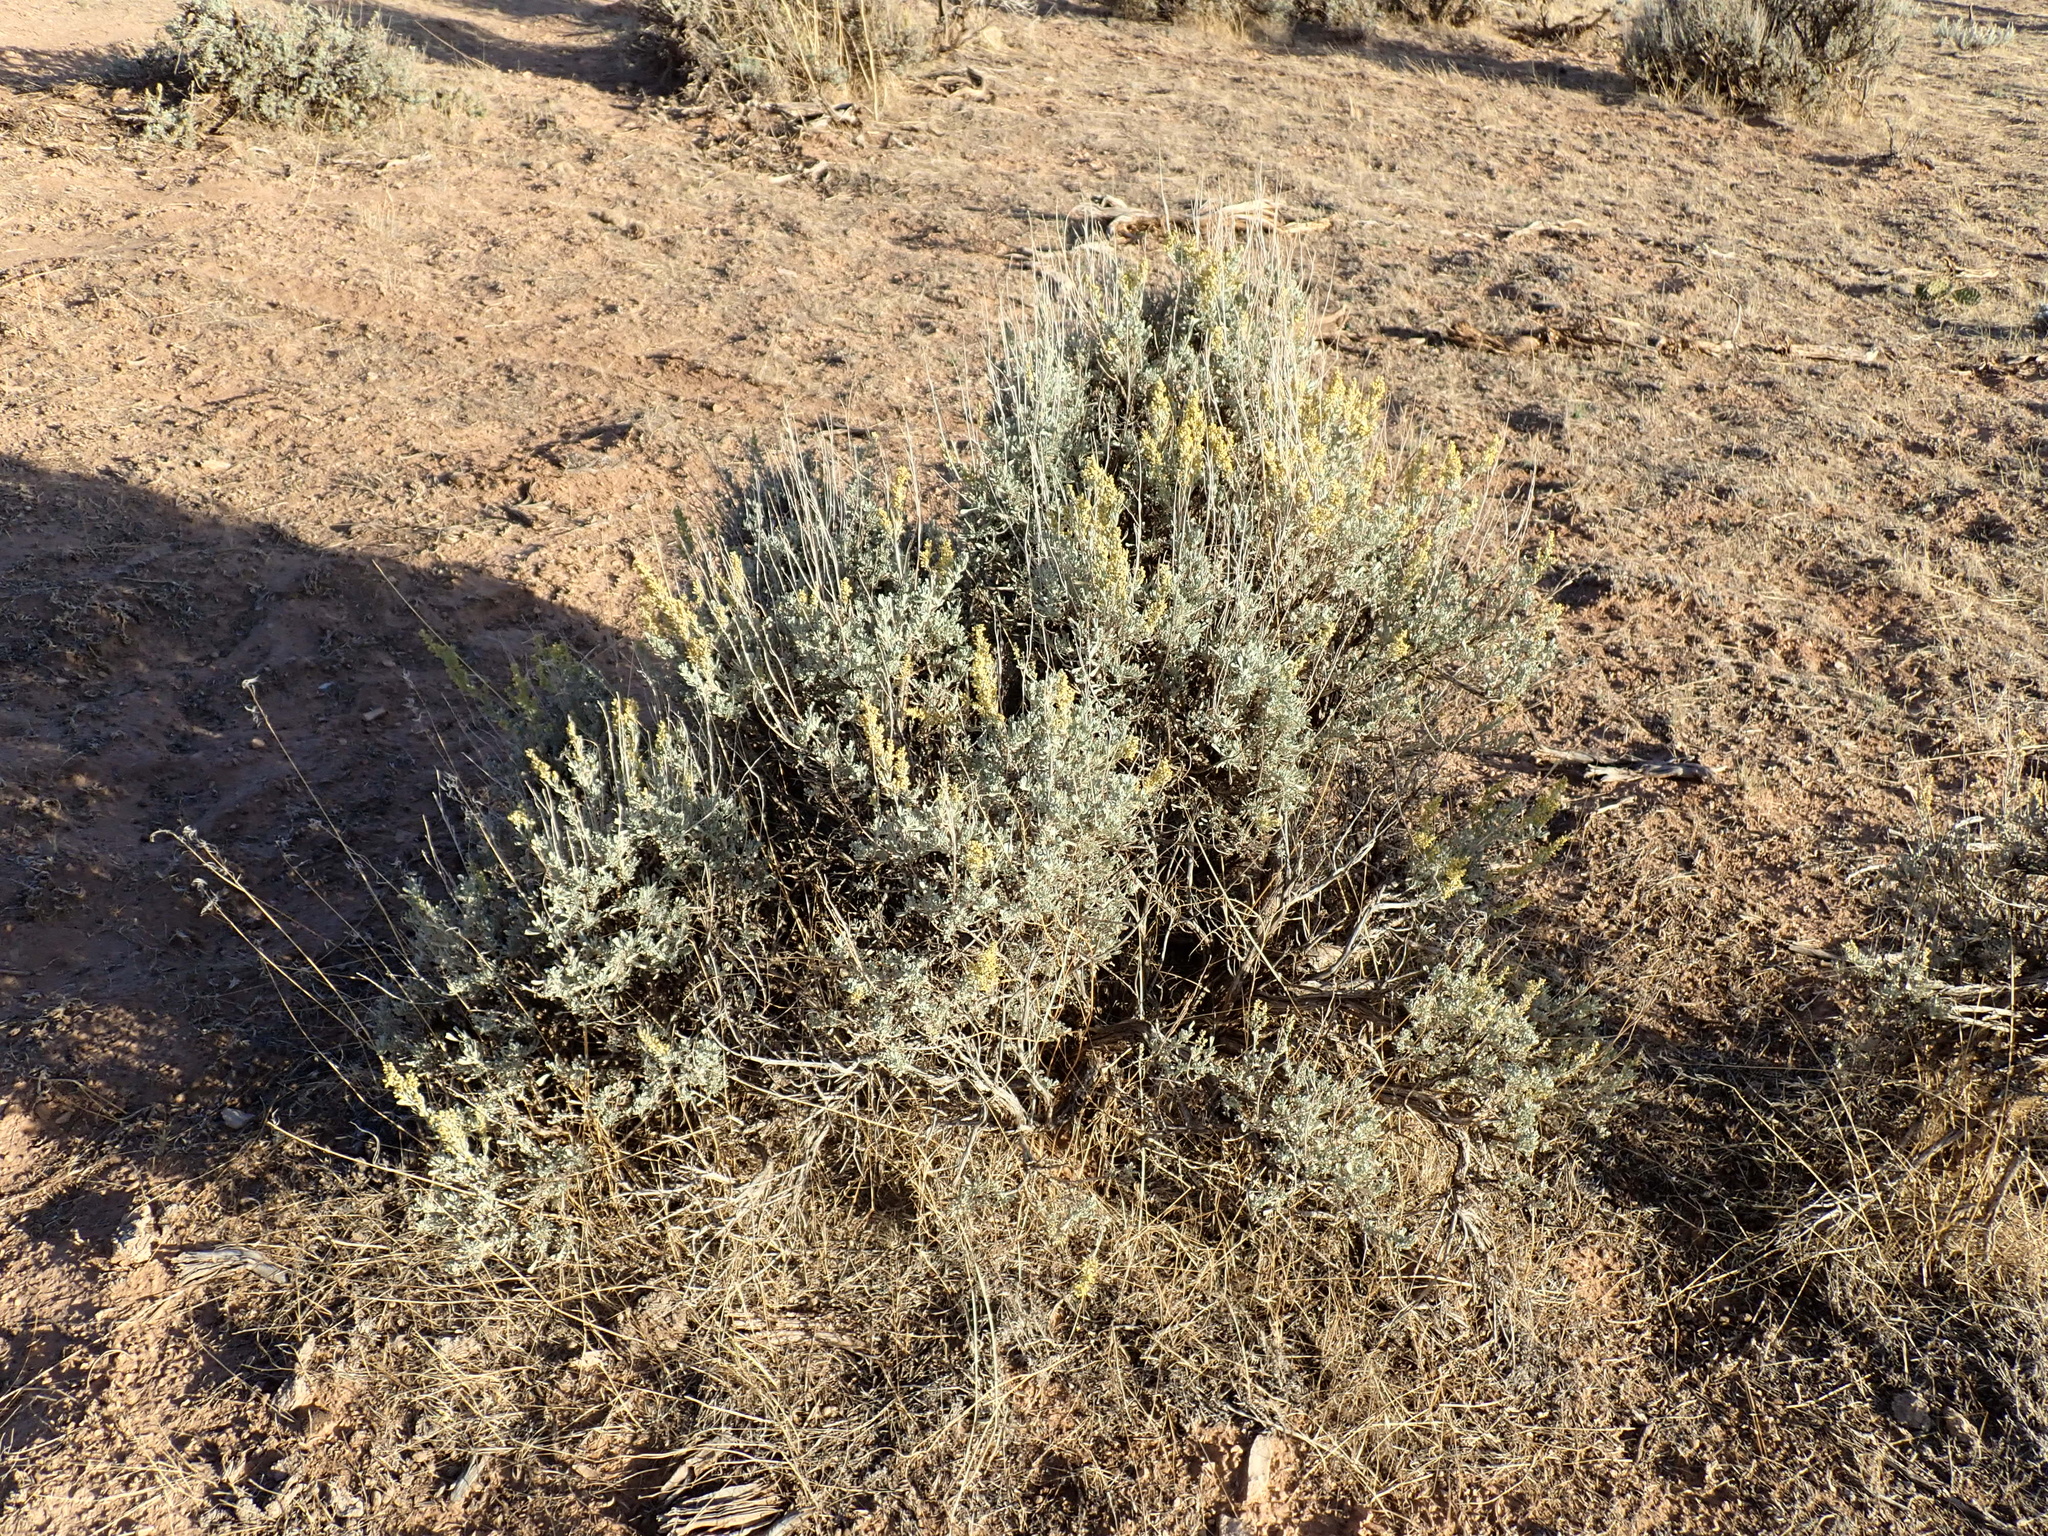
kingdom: Plantae
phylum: Tracheophyta
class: Magnoliopsida
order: Asterales
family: Asteraceae
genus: Artemisia
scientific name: Artemisia tridentata
